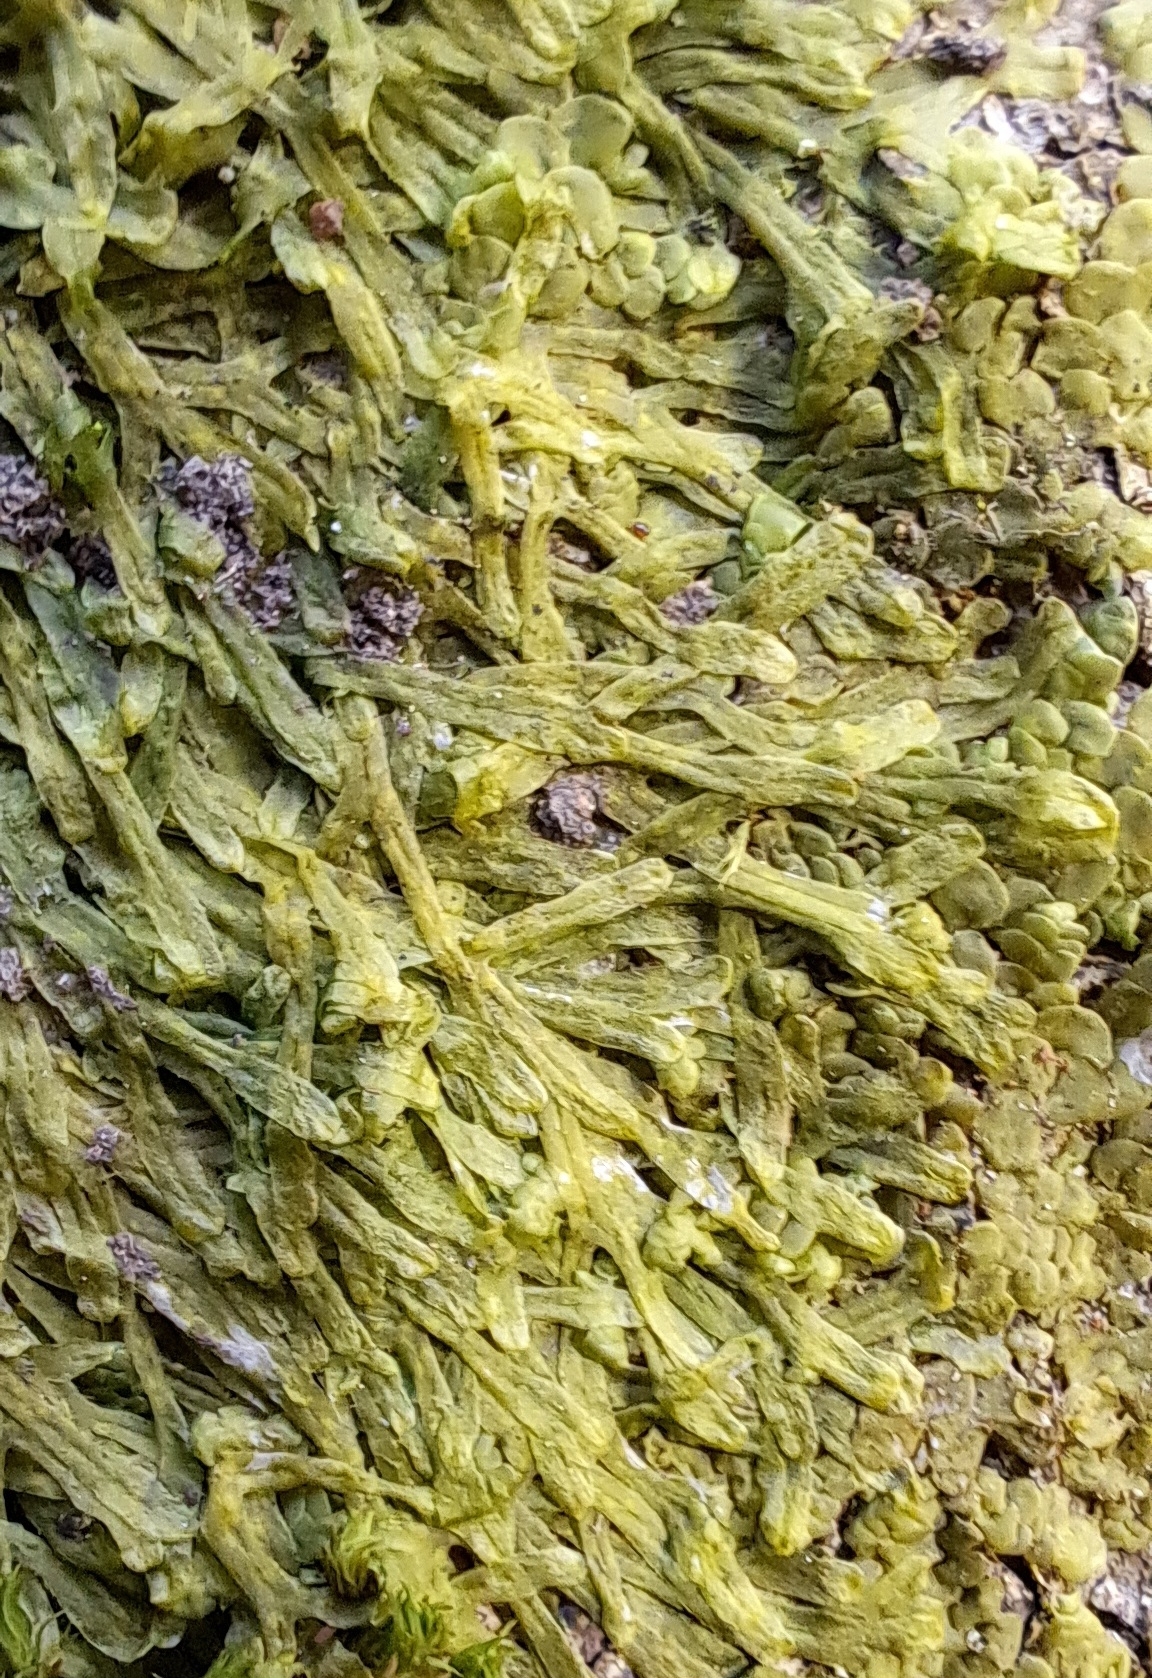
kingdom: Plantae
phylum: Marchantiophyta
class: Jungermanniopsida
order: Metzgeriales
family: Metzgeriaceae
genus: Metzgeria
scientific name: Metzgeria furcata
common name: Forked veilwort
